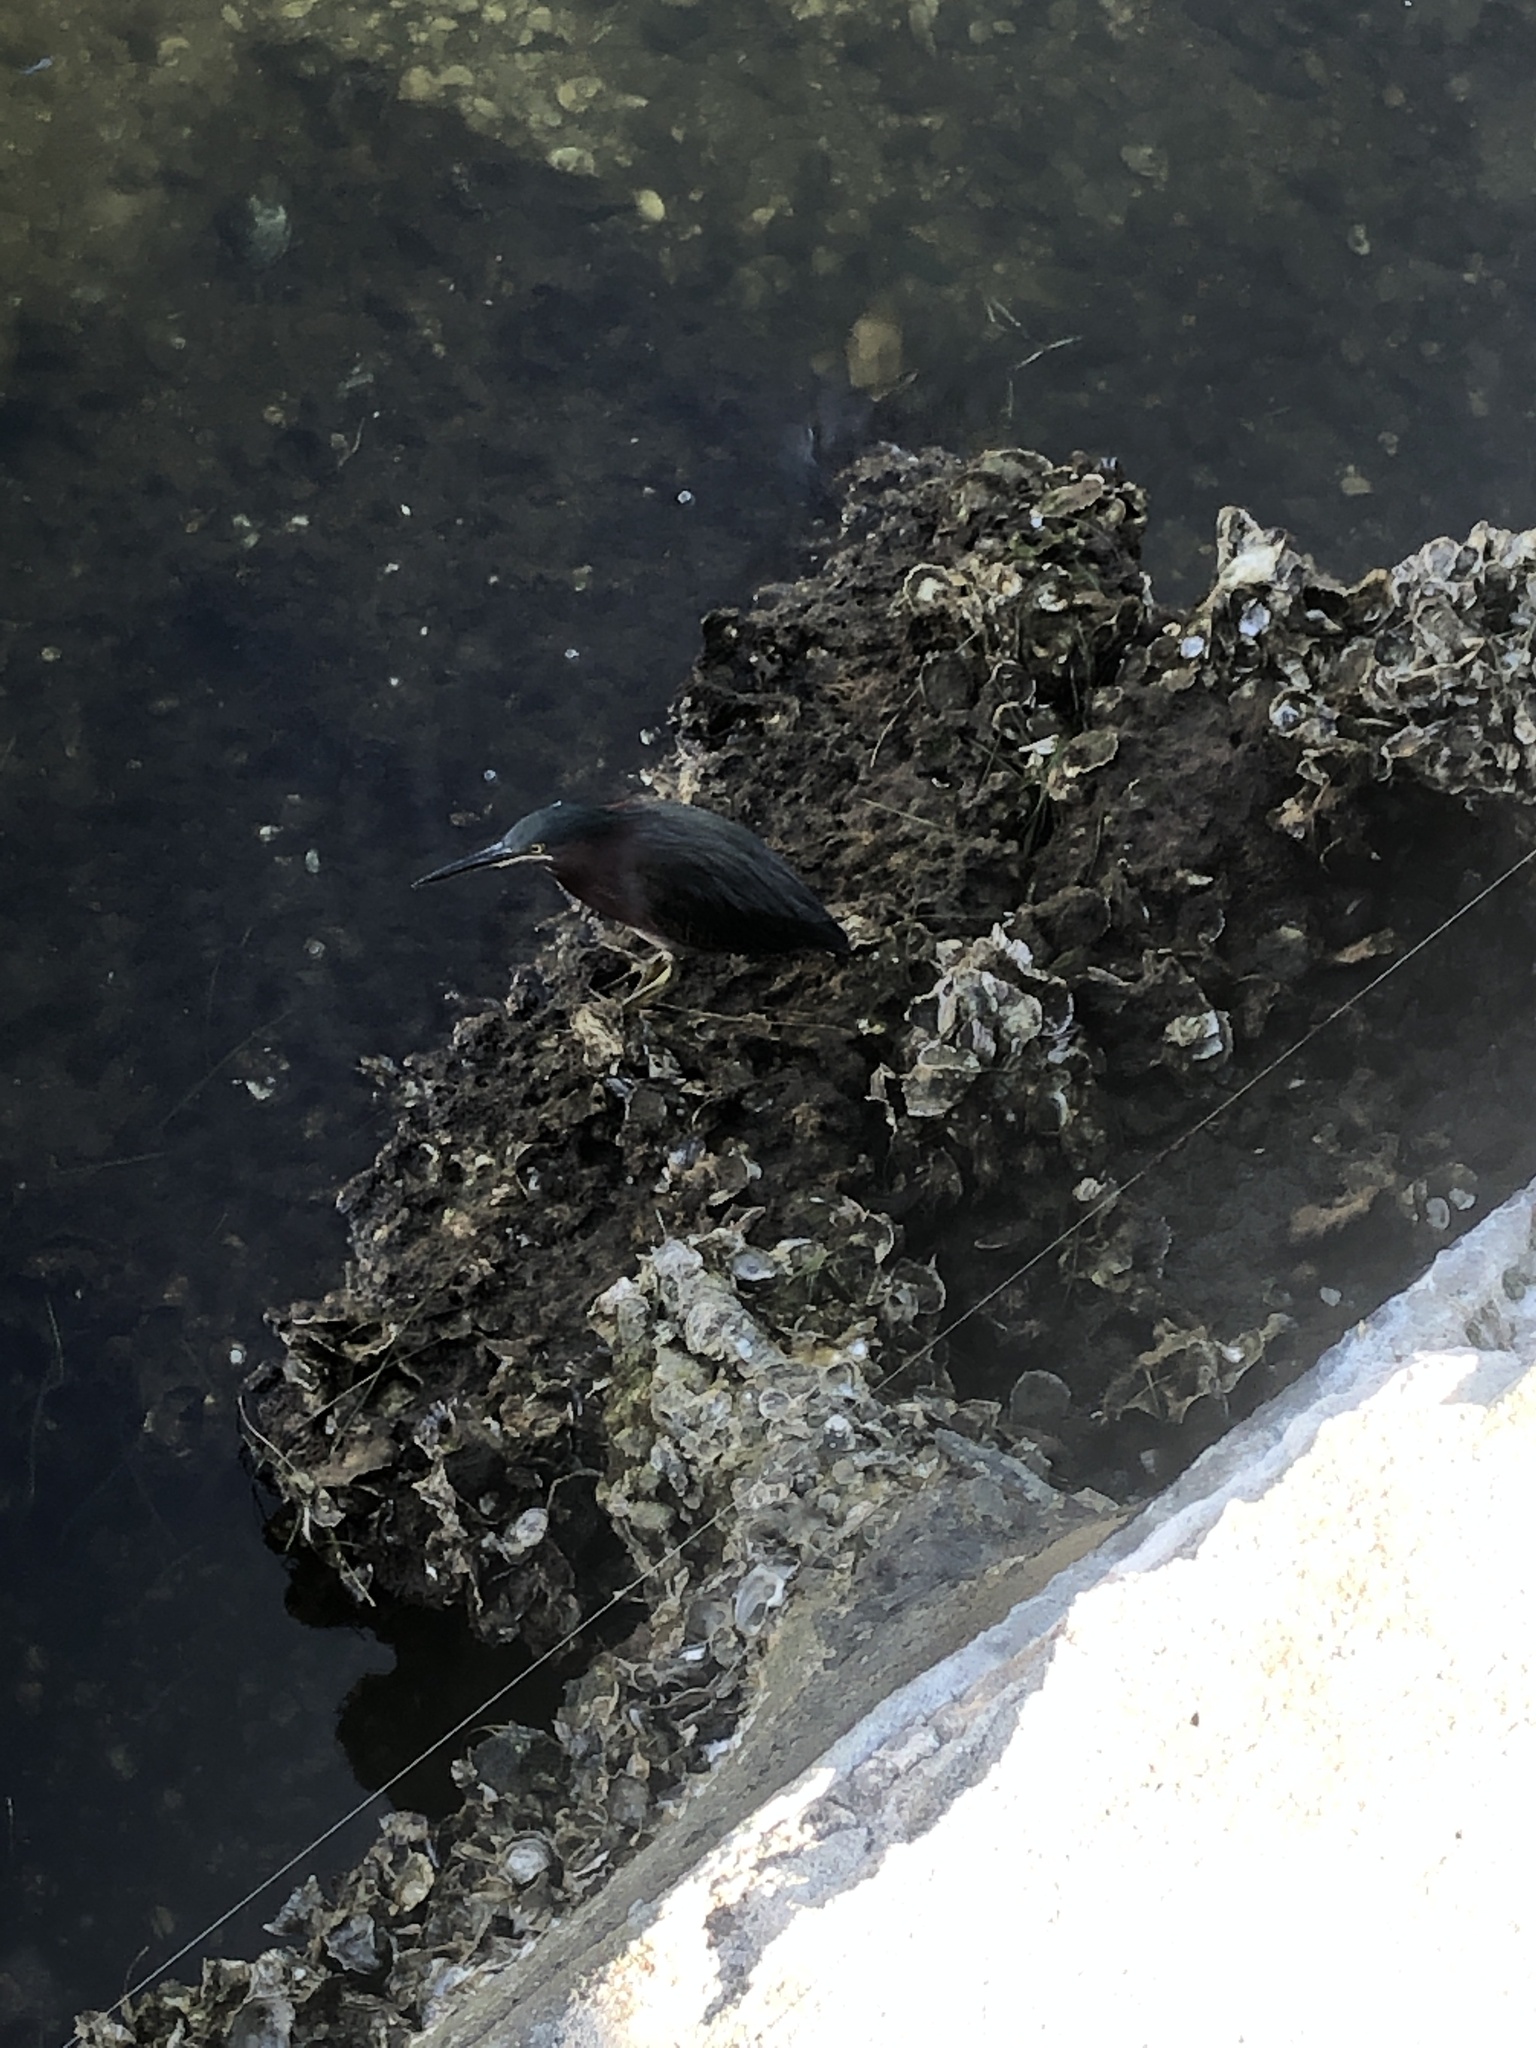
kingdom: Animalia
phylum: Chordata
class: Aves
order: Pelecaniformes
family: Ardeidae
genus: Butorides
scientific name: Butorides virescens
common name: Green heron
